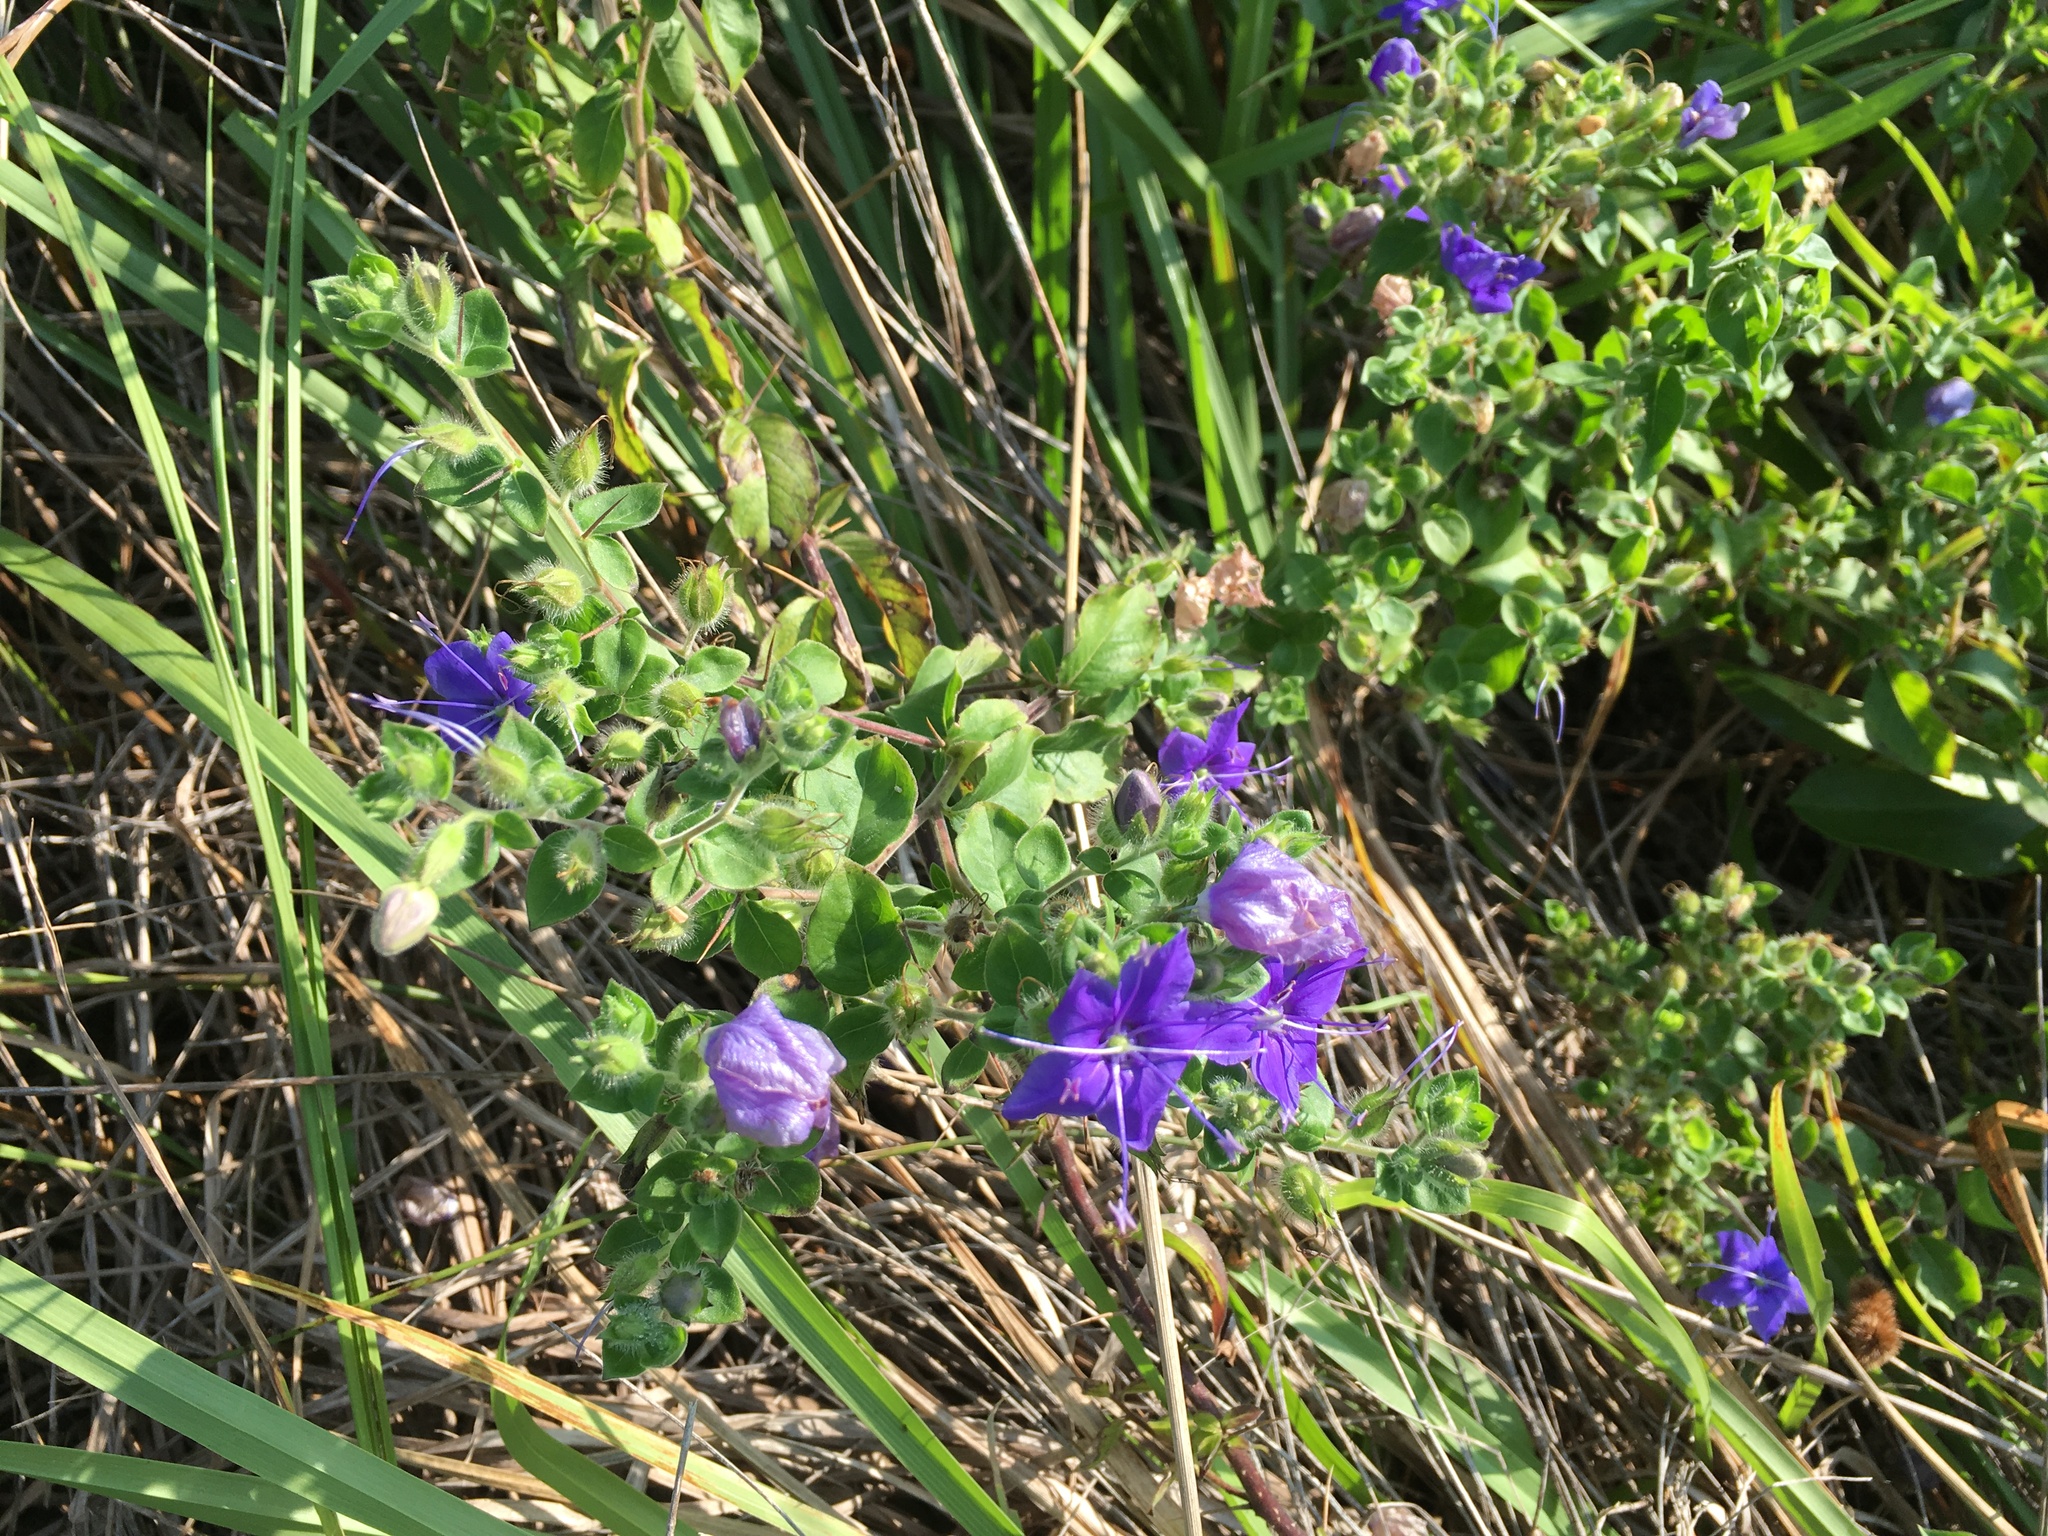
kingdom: Plantae
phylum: Tracheophyta
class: Magnoliopsida
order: Solanales
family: Hydroleaceae
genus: Hydrolea
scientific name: Hydrolea ovata
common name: Ovate false fiddleleaf
